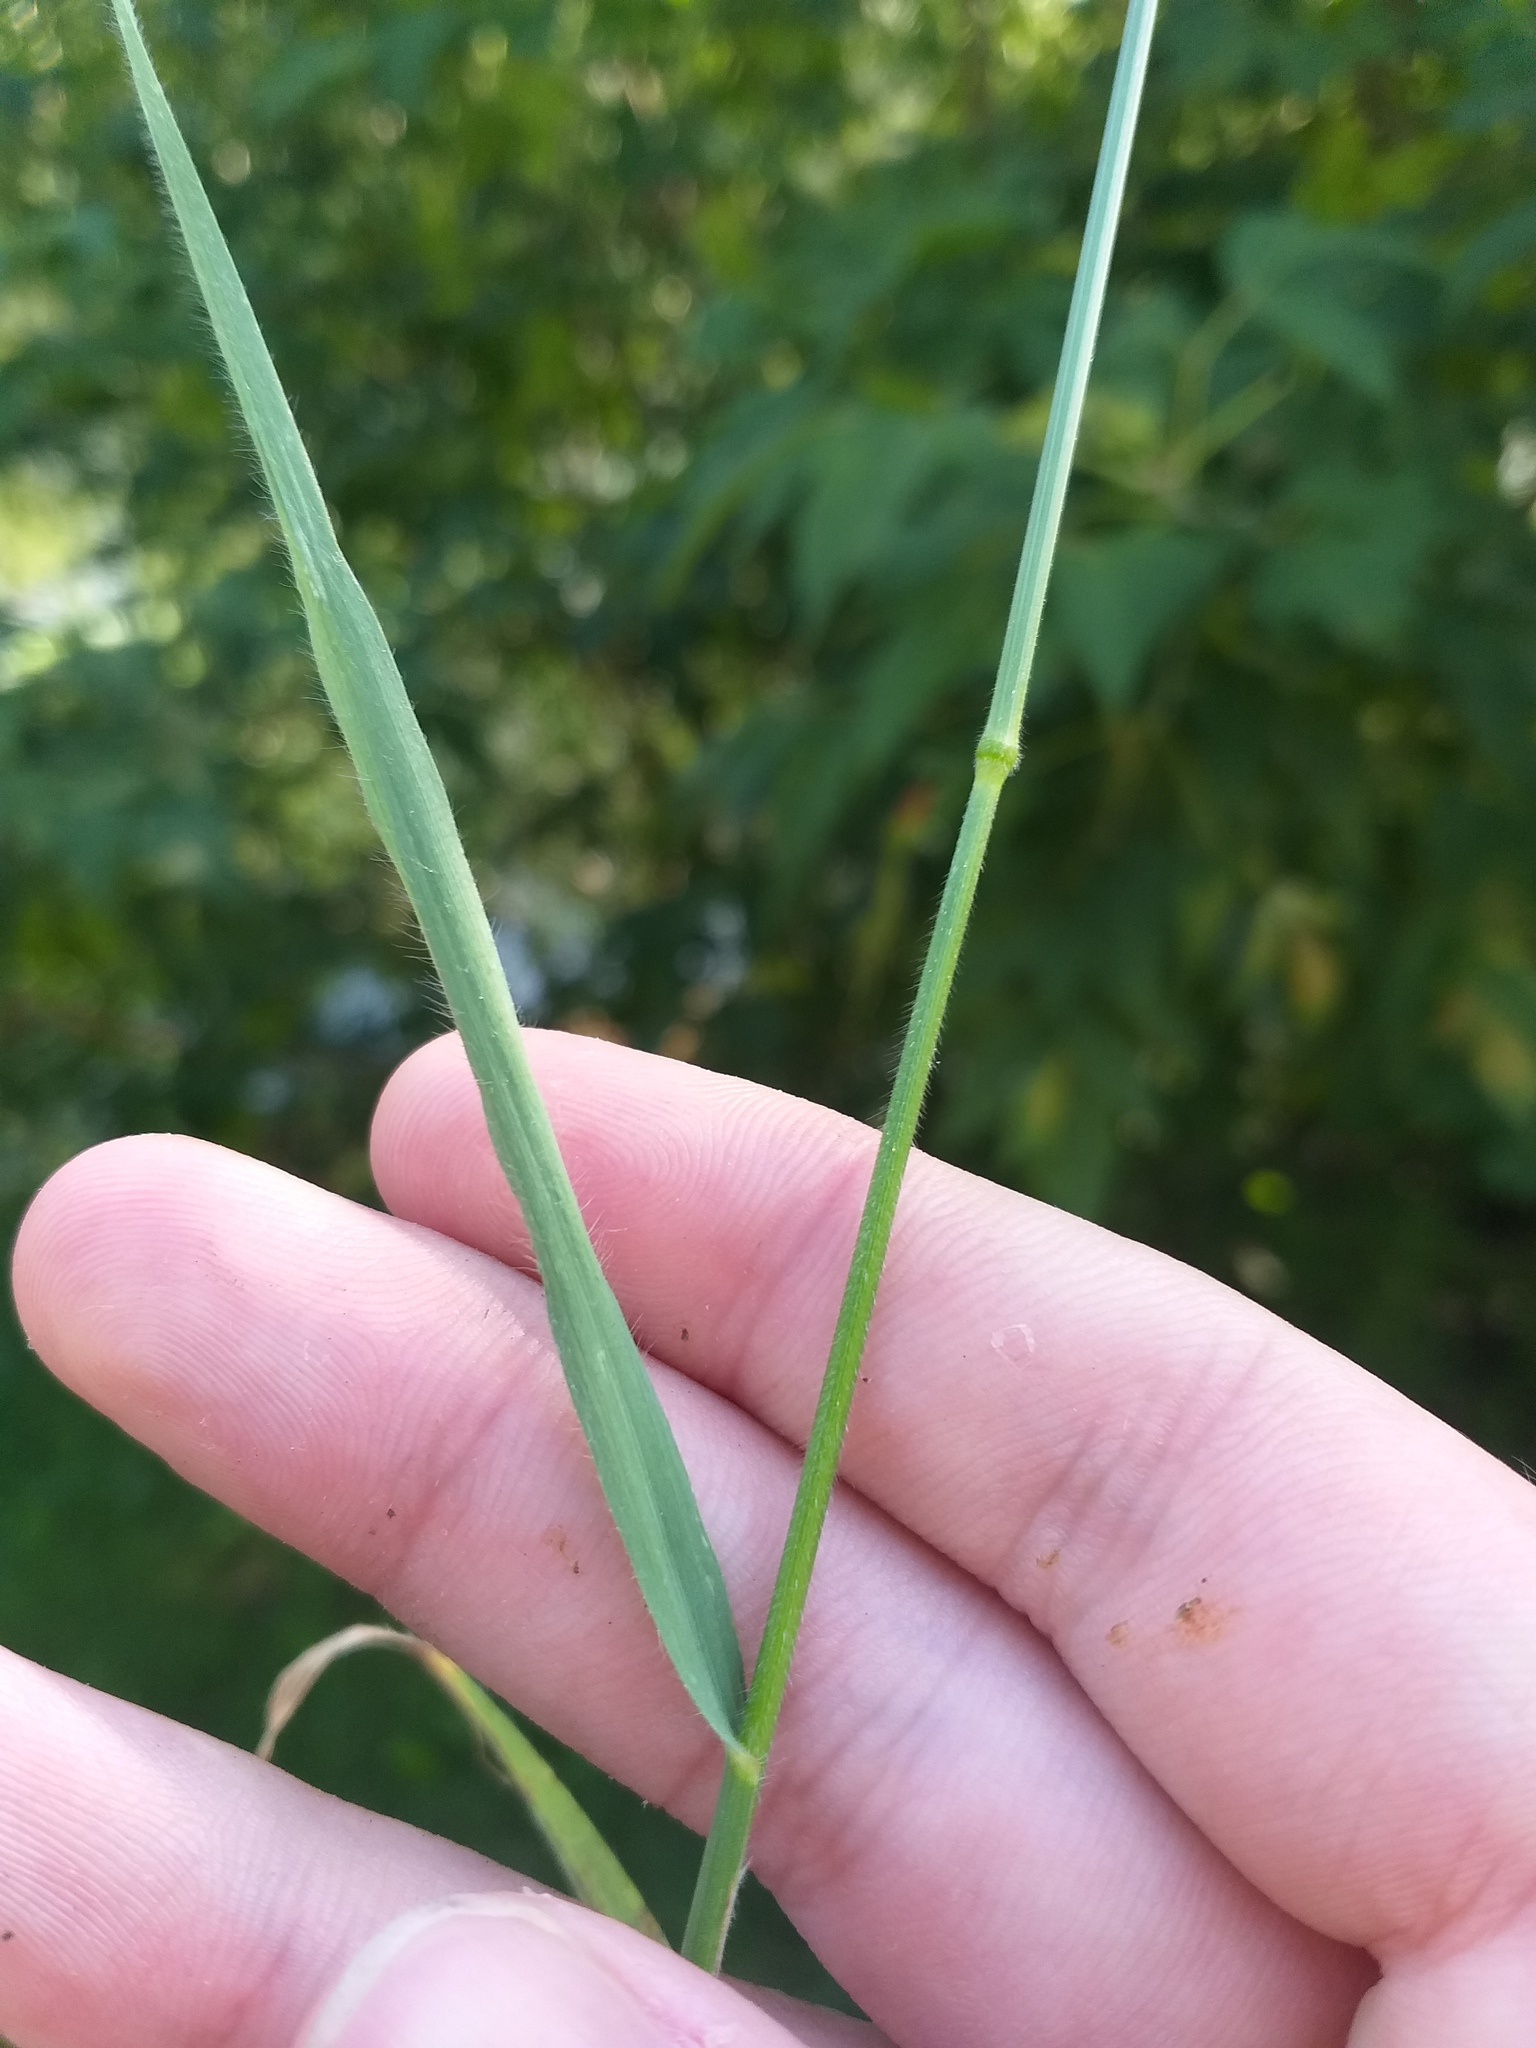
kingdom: Plantae
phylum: Tracheophyta
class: Liliopsida
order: Poales
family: Poaceae
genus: Bromus
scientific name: Bromus riparius
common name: Meadow brome
